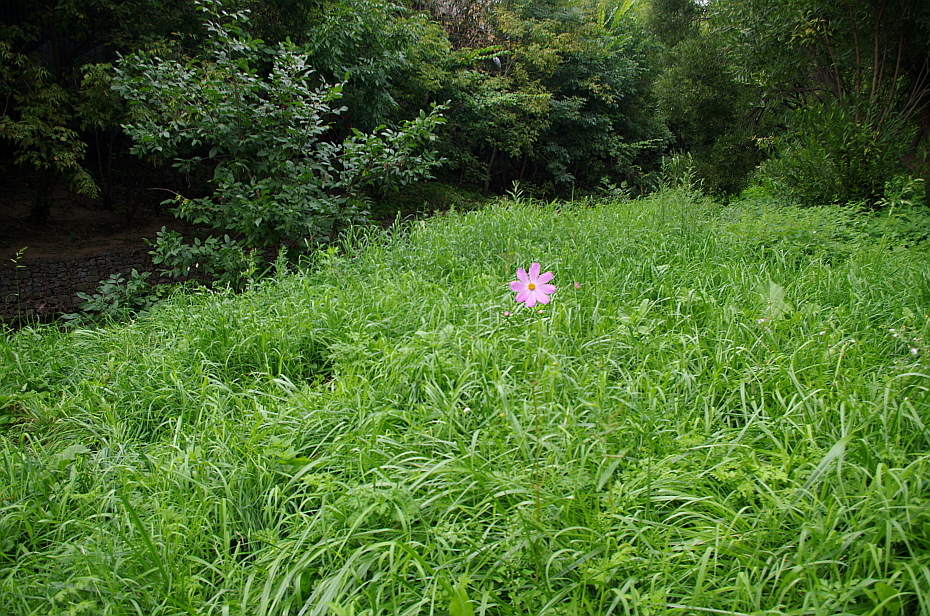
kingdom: Plantae
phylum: Tracheophyta
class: Magnoliopsida
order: Asterales
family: Asteraceae
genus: Cosmos
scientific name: Cosmos bipinnatus
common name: Garden cosmos
